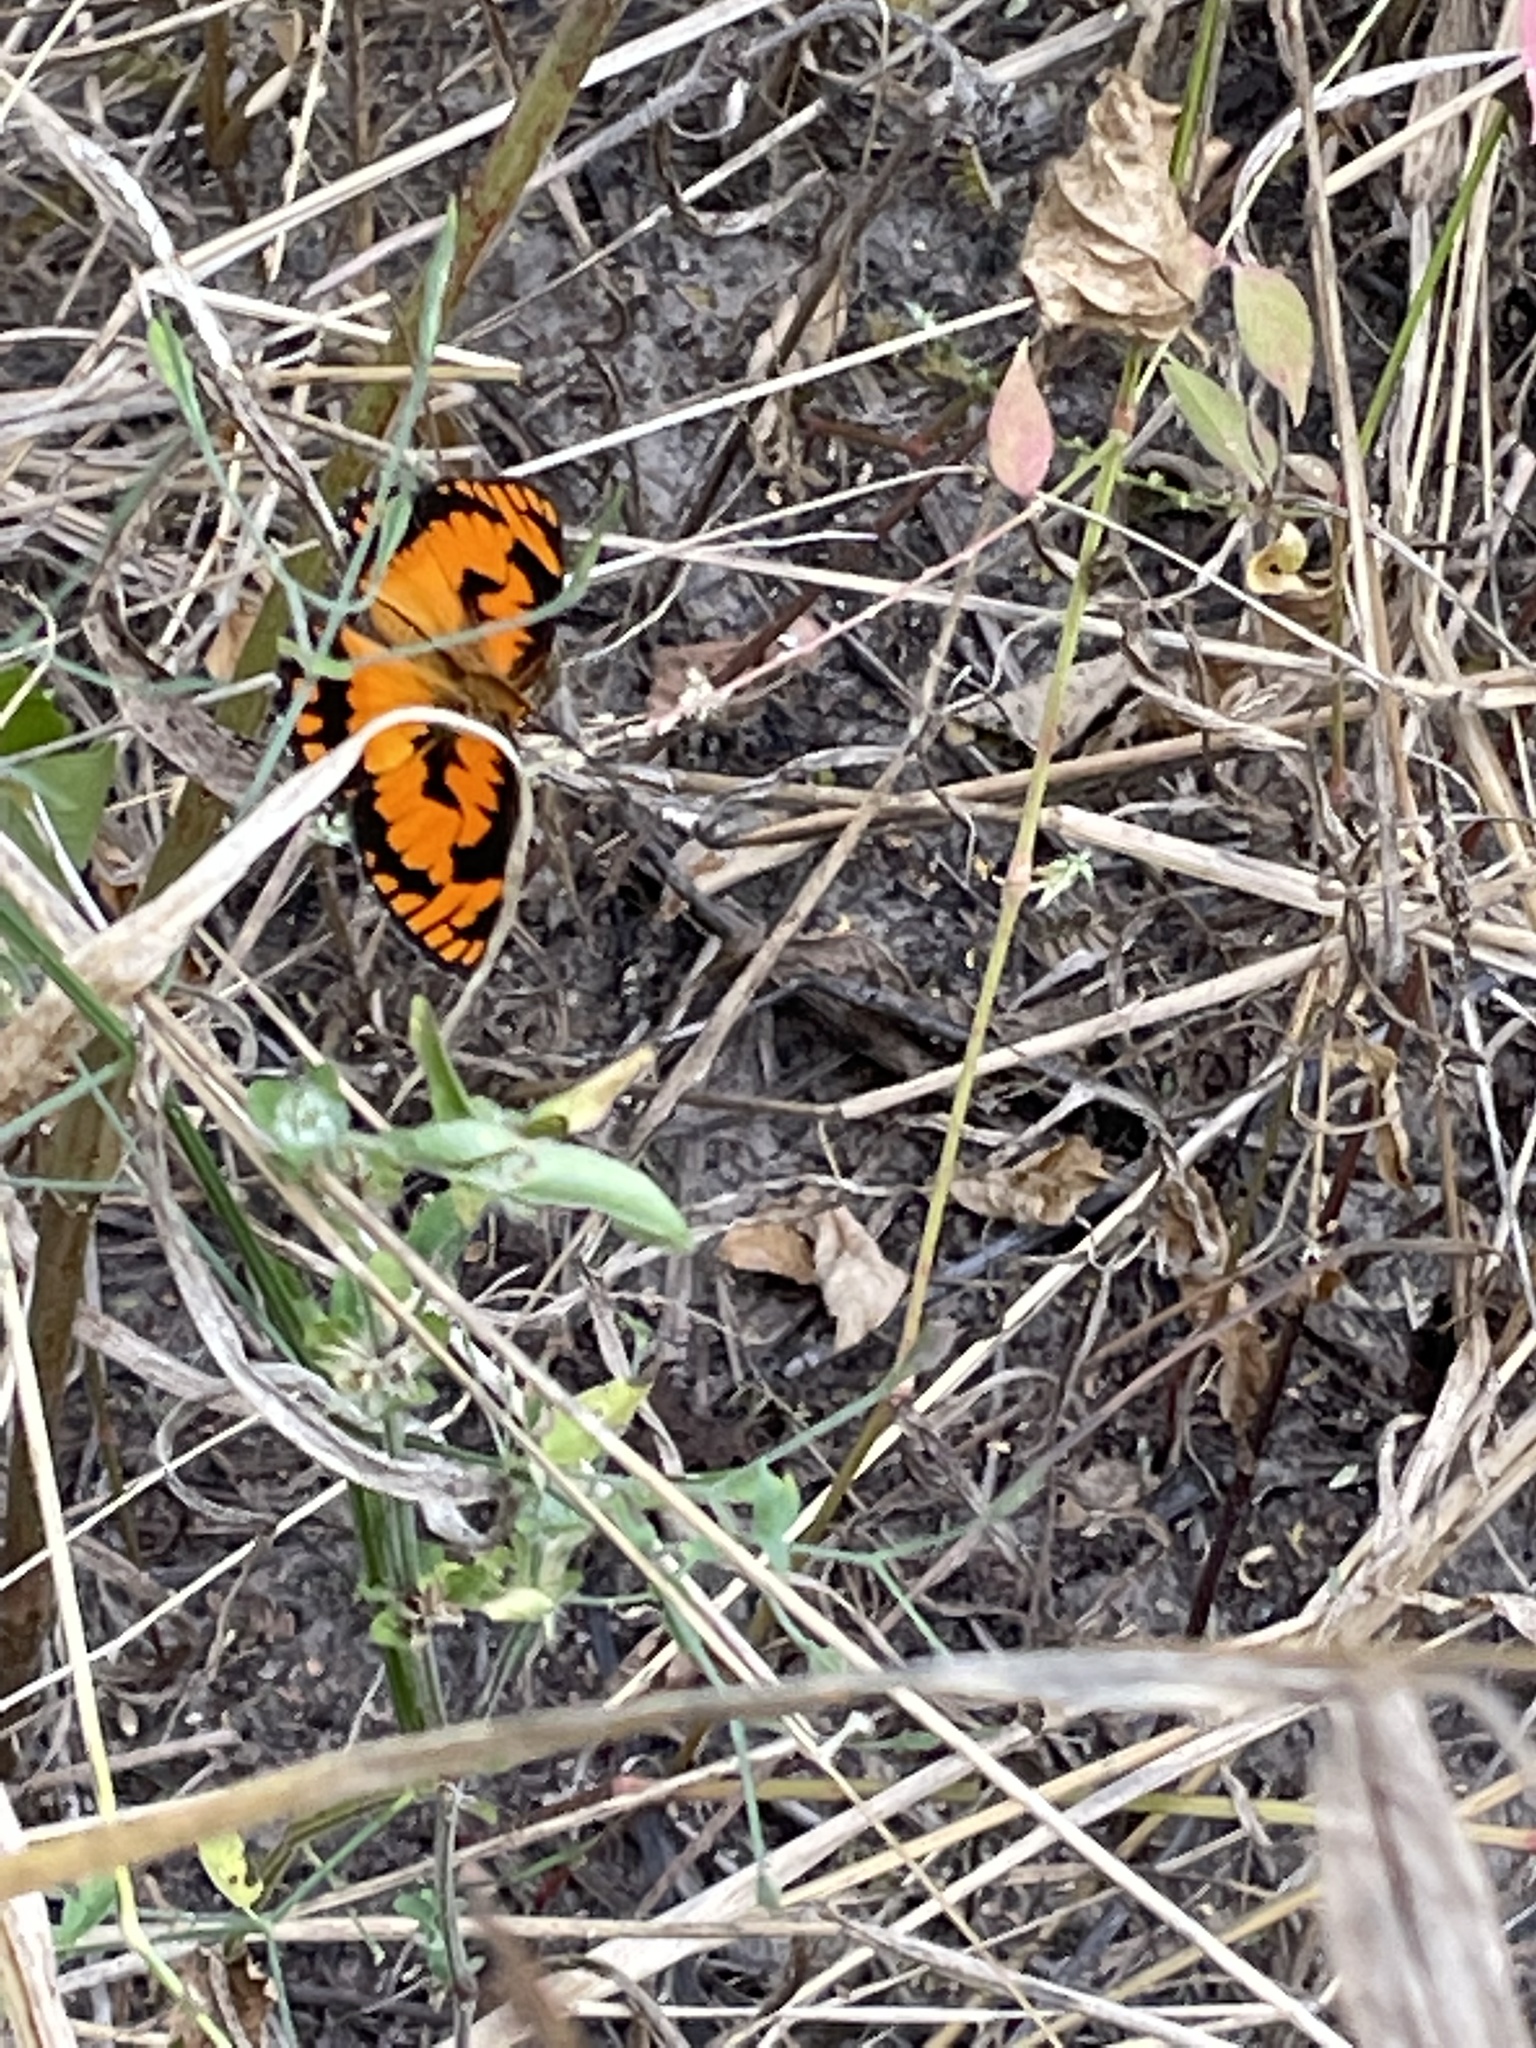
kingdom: Animalia
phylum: Arthropoda
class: Insecta
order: Lepidoptera
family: Nymphalidae
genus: Byblia
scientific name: Byblia acheloia
